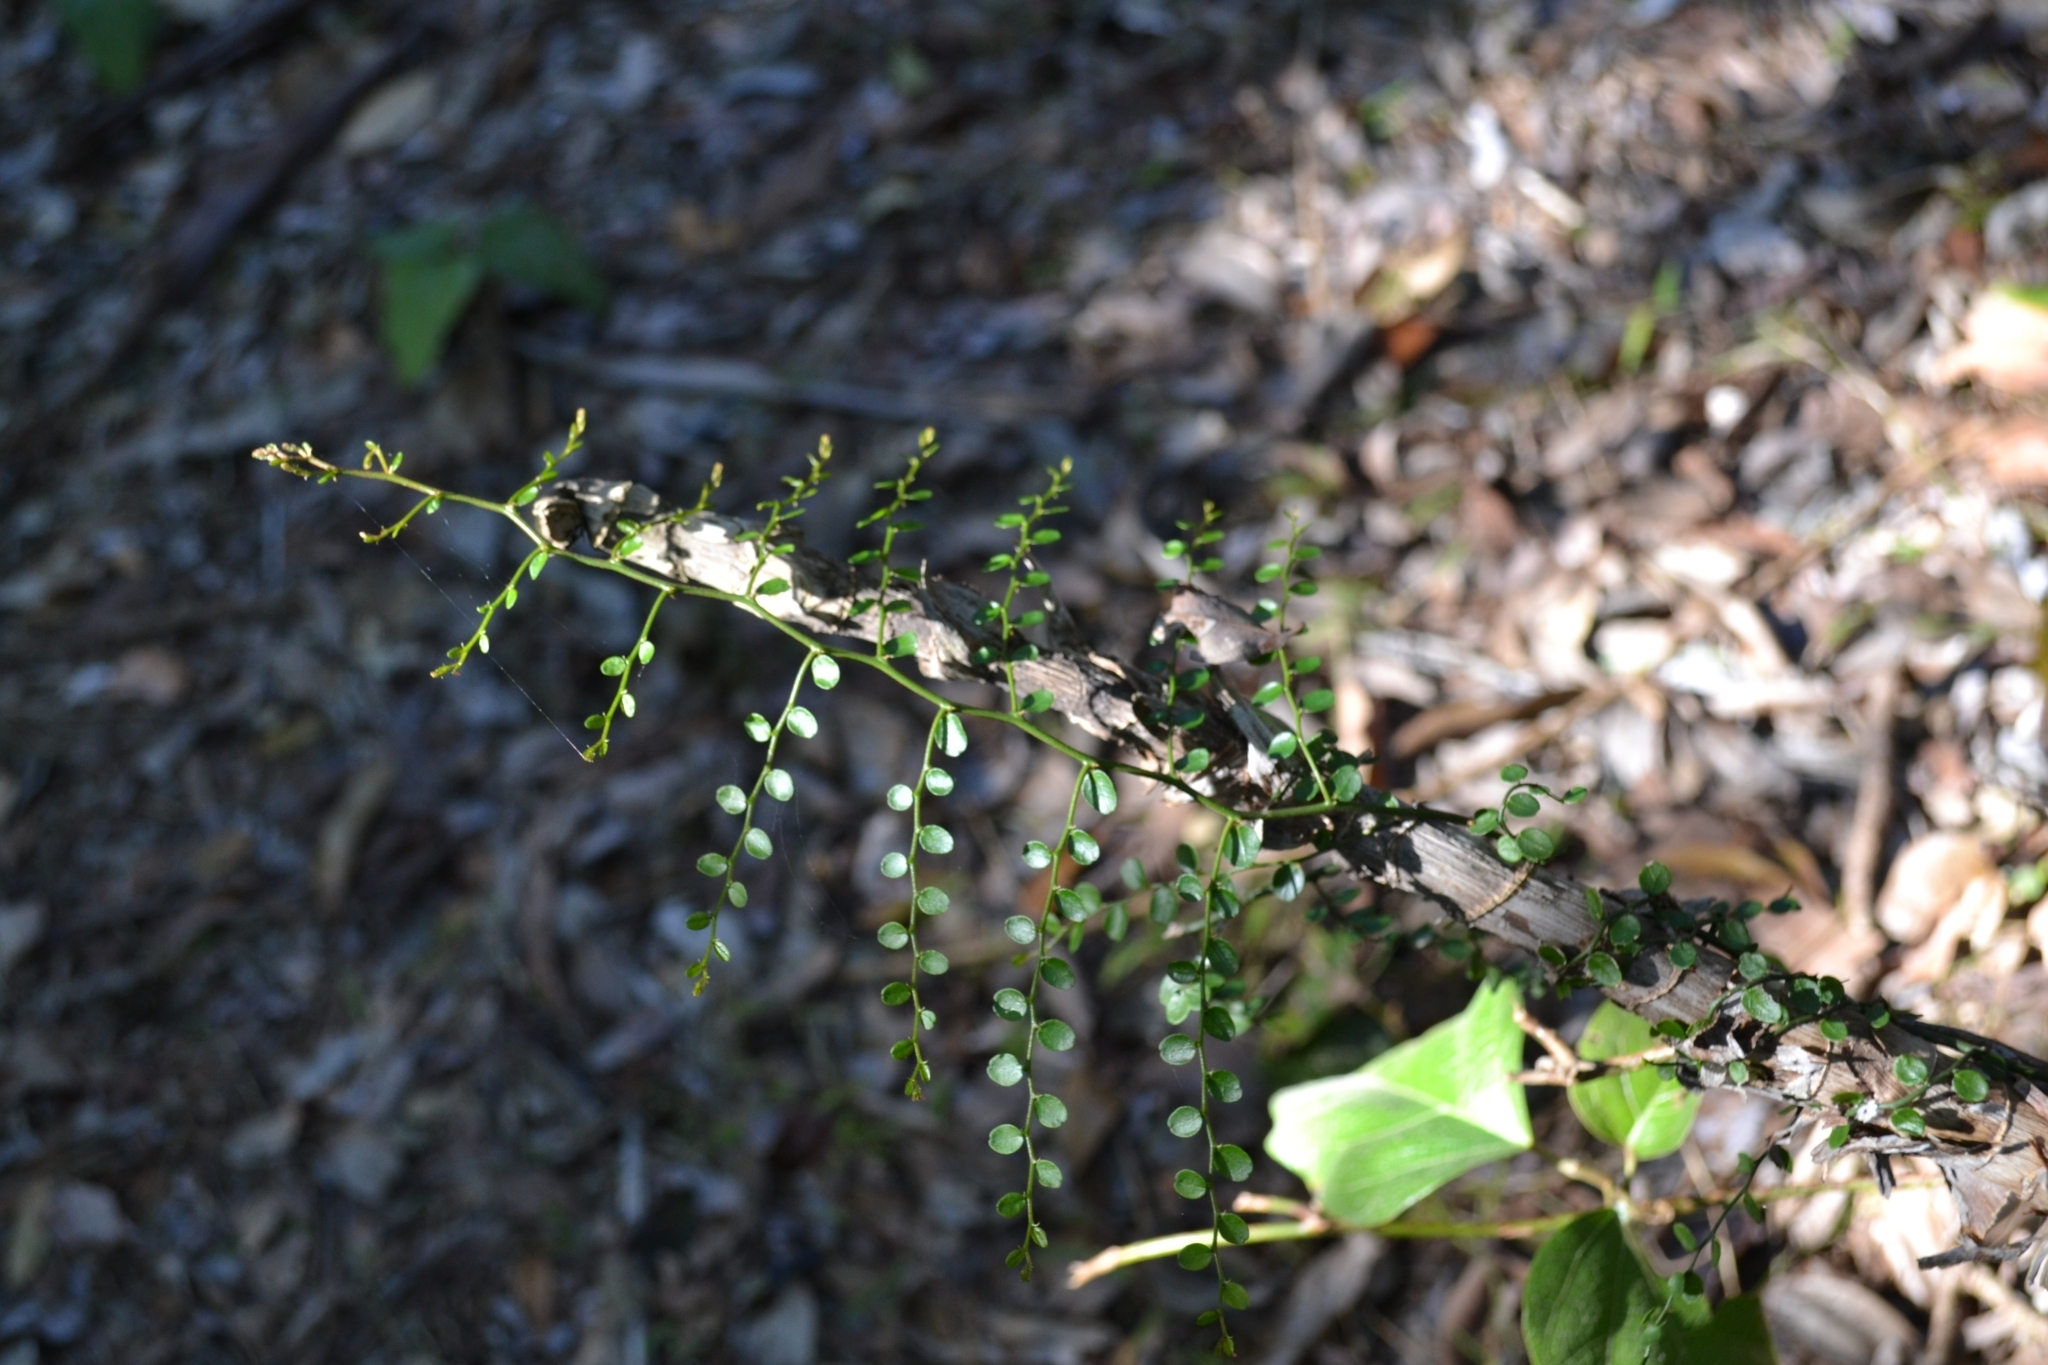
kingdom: Plantae
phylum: Tracheophyta
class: Magnoliopsida
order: Brassicales
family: Capparaceae
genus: Capparis
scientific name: Capparis sarmentosa
